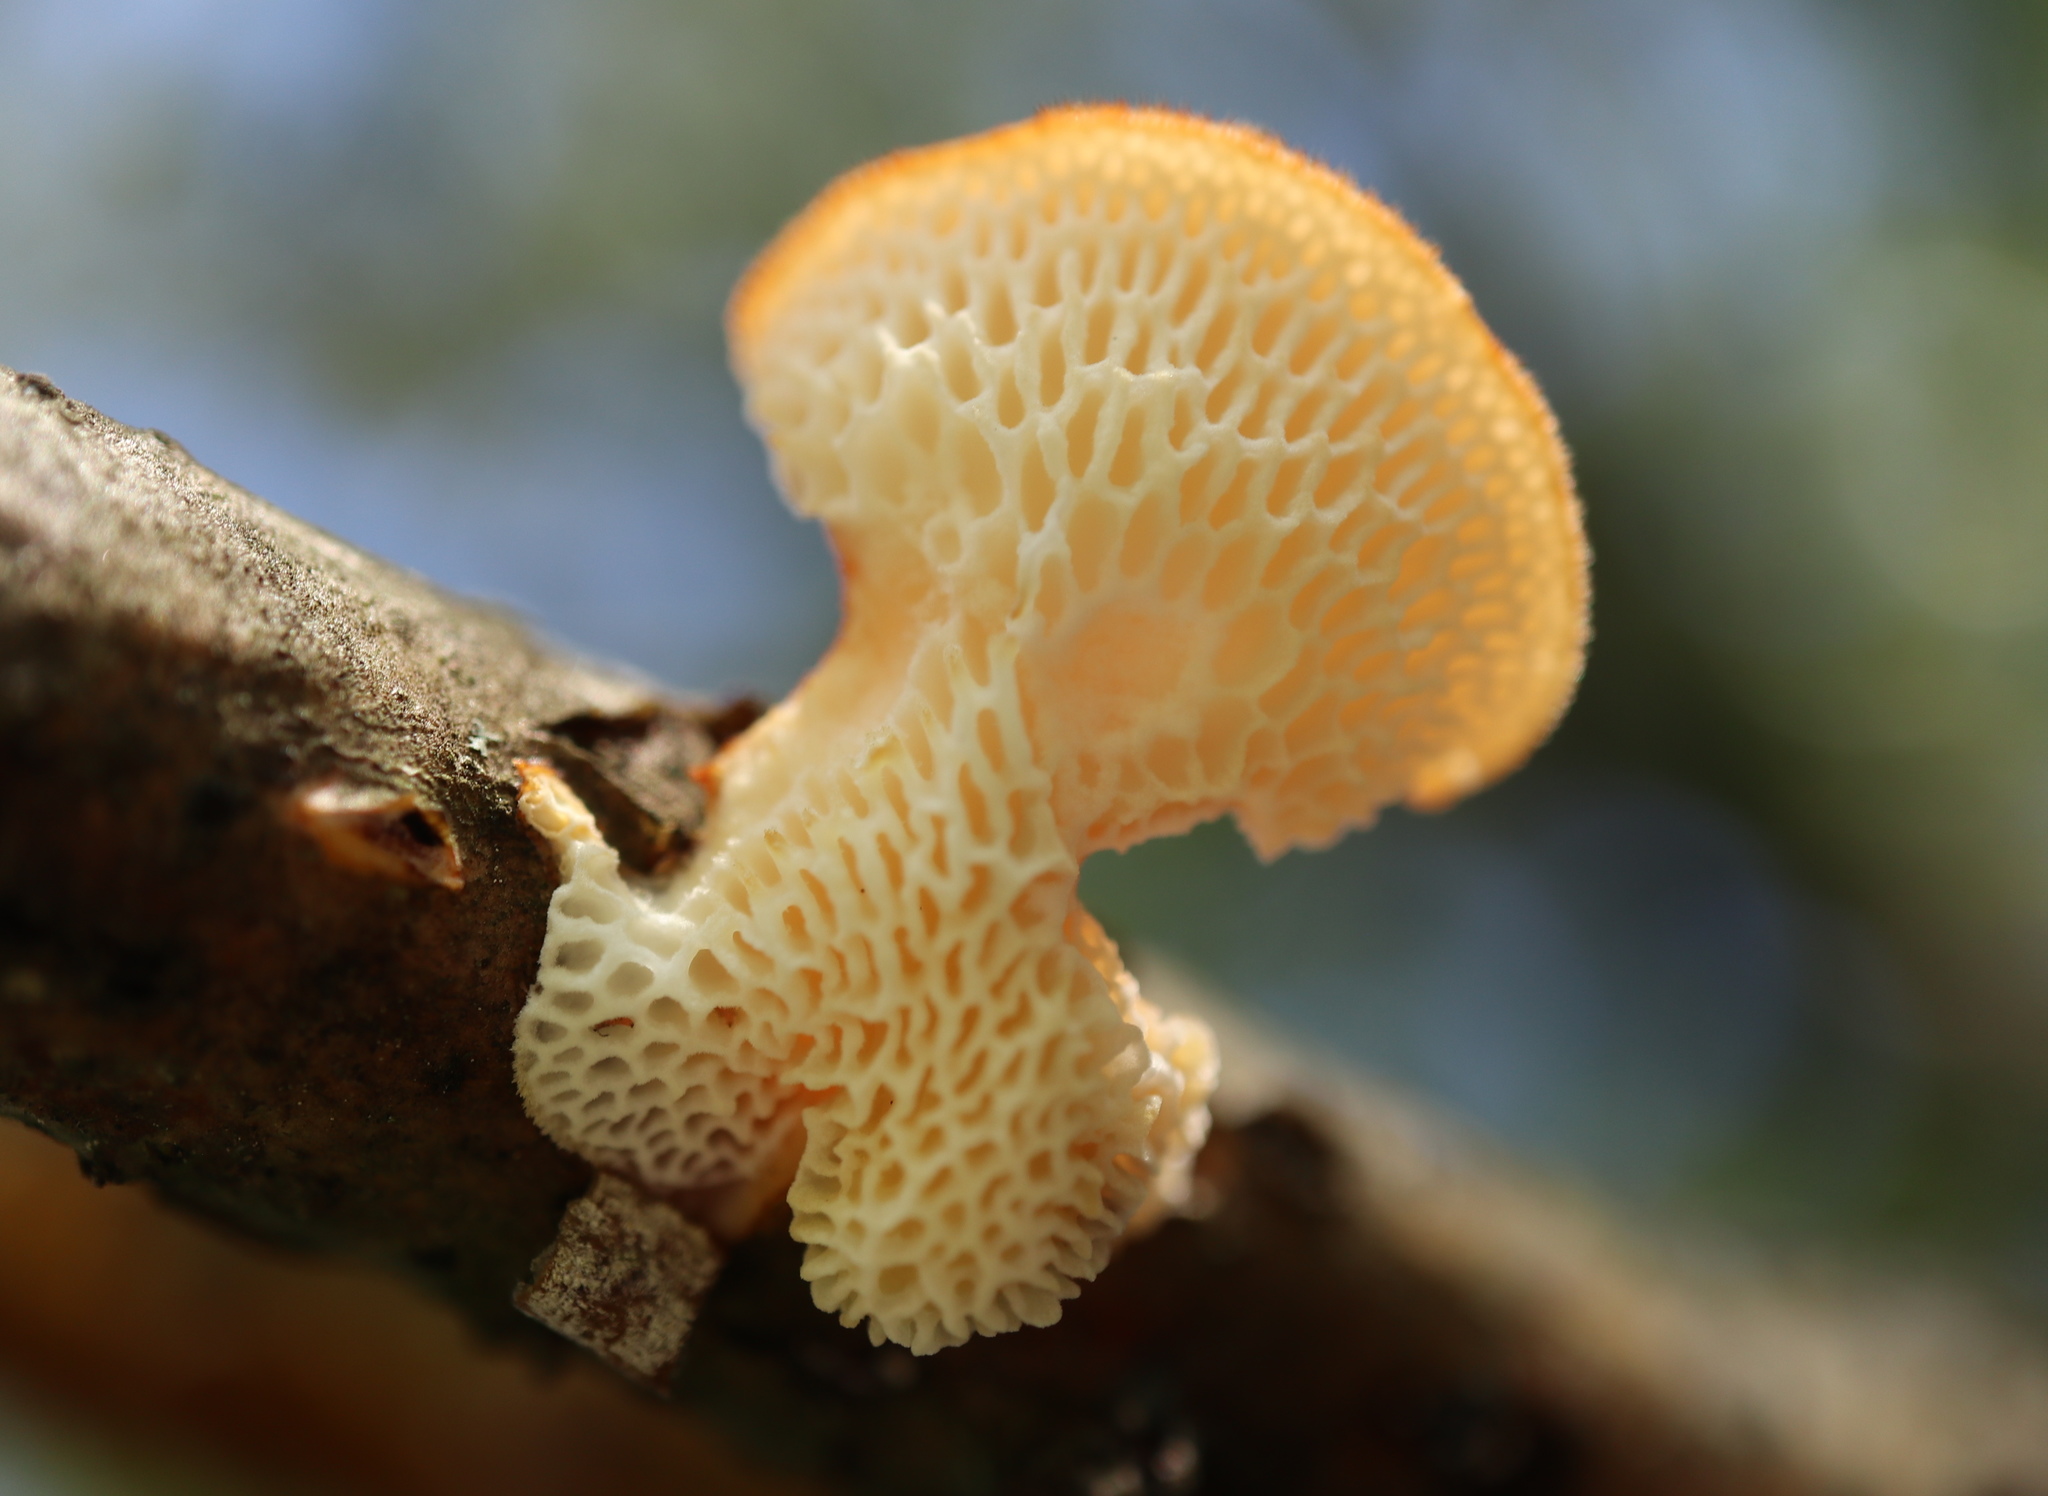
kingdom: Fungi
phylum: Basidiomycota
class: Agaricomycetes
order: Polyporales
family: Polyporaceae
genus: Neofavolus
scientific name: Neofavolus alveolaris
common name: Hexagonal-pored polypore
